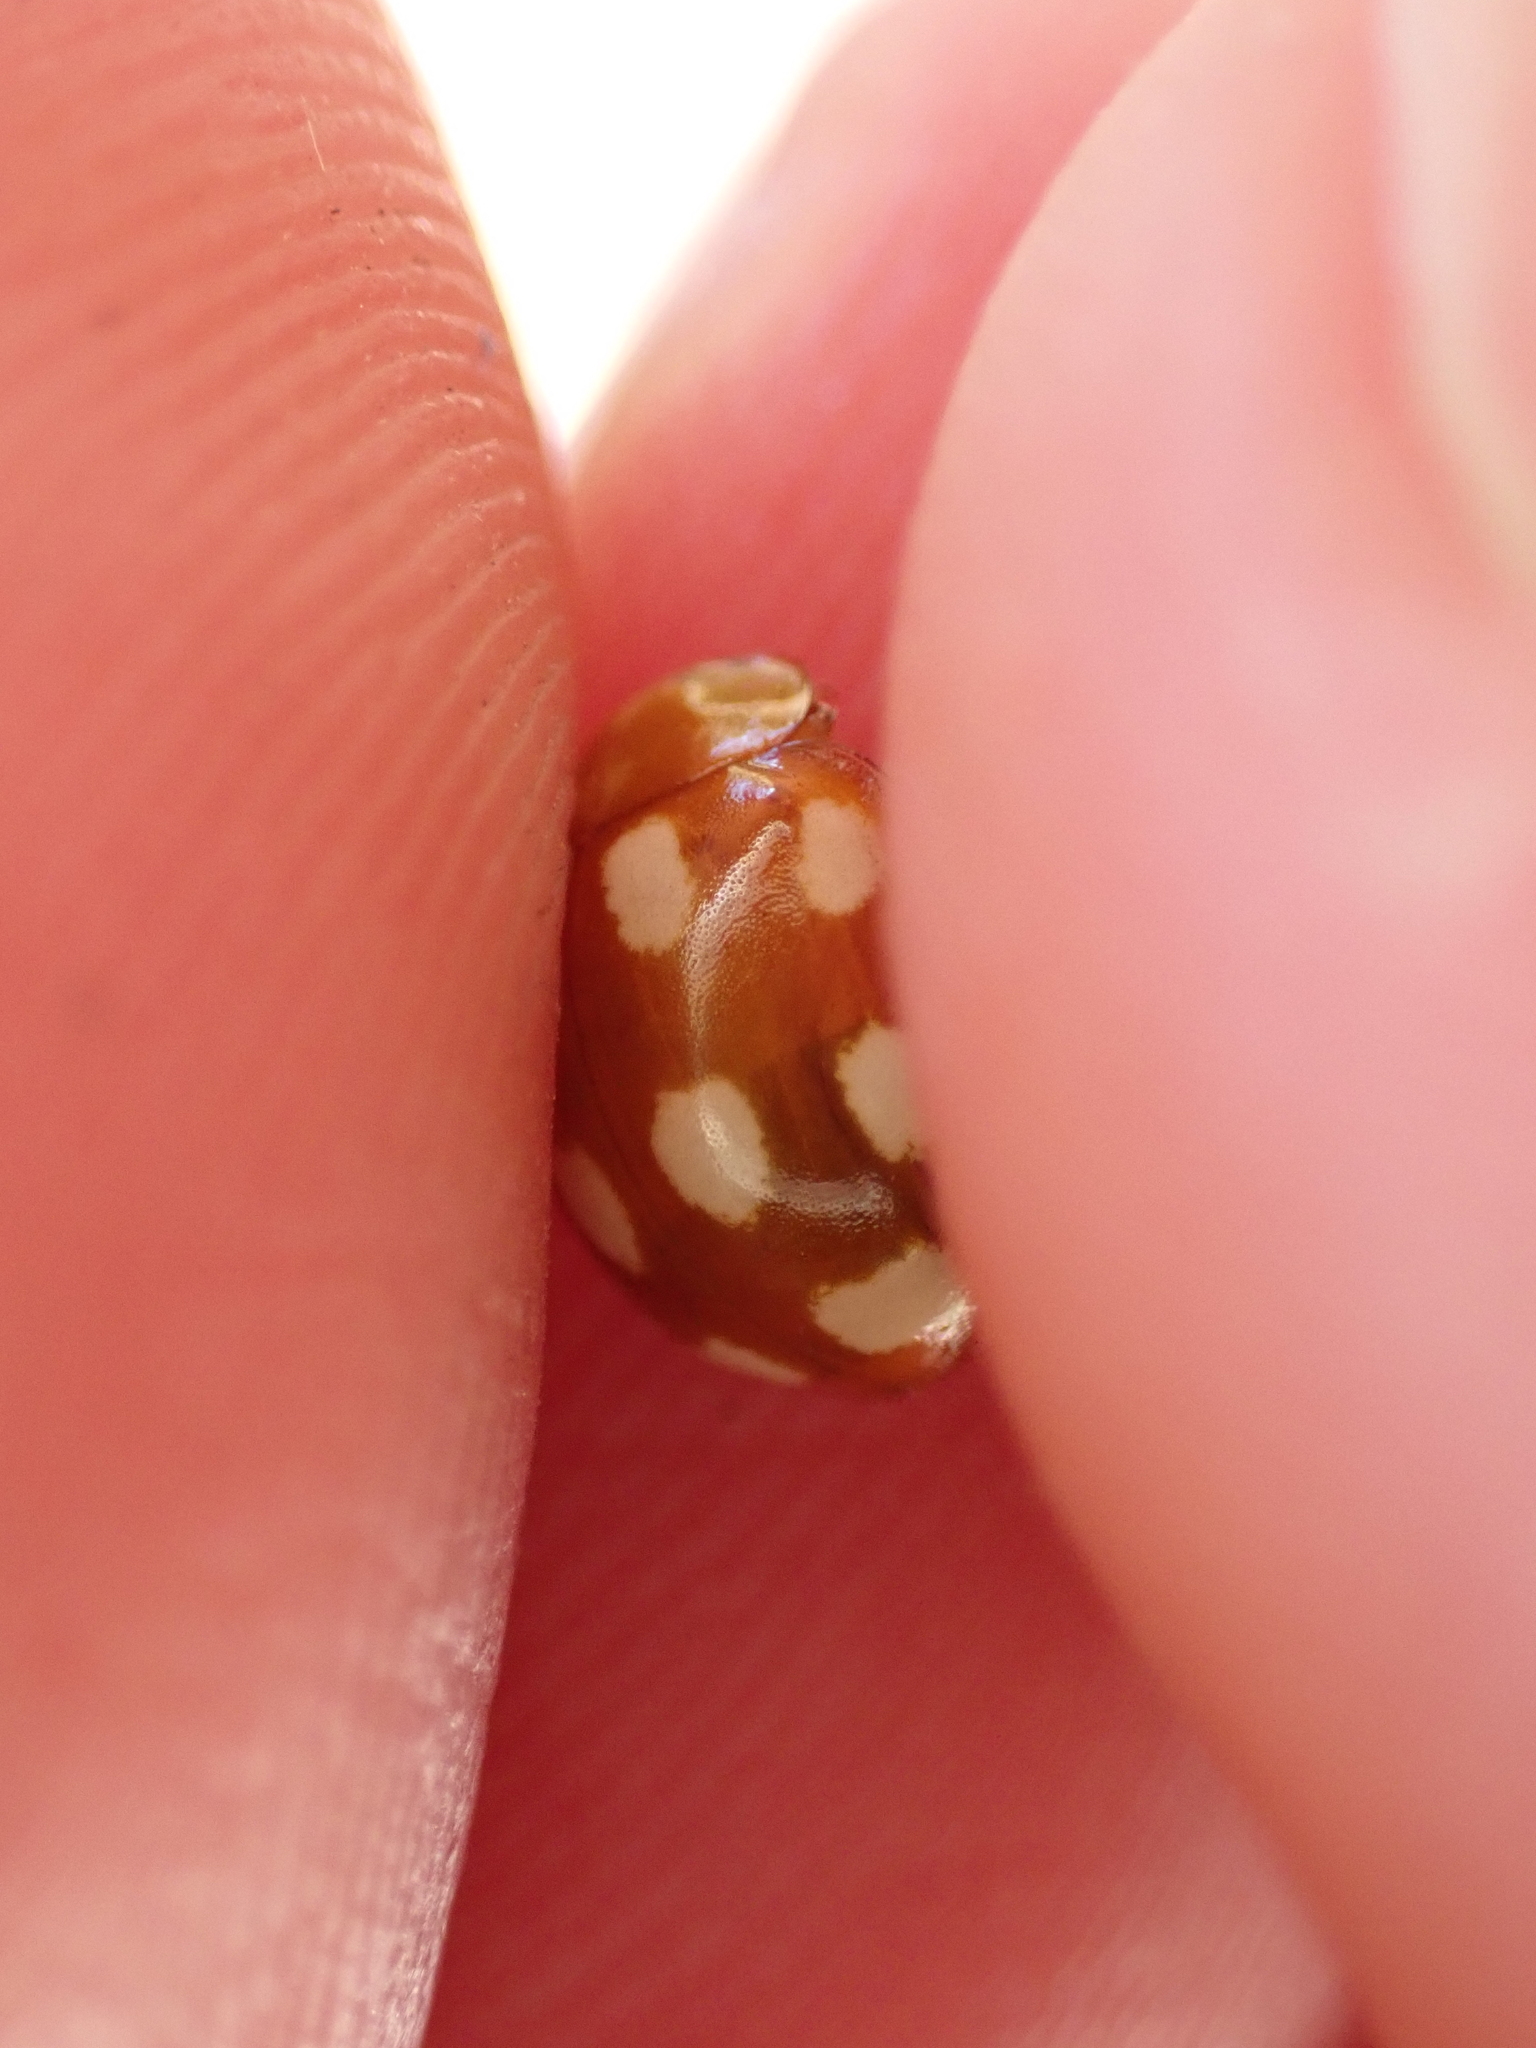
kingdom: Animalia
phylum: Arthropoda
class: Insecta
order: Coleoptera
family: Coccinellidae
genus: Calvia
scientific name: Calvia decemguttata
